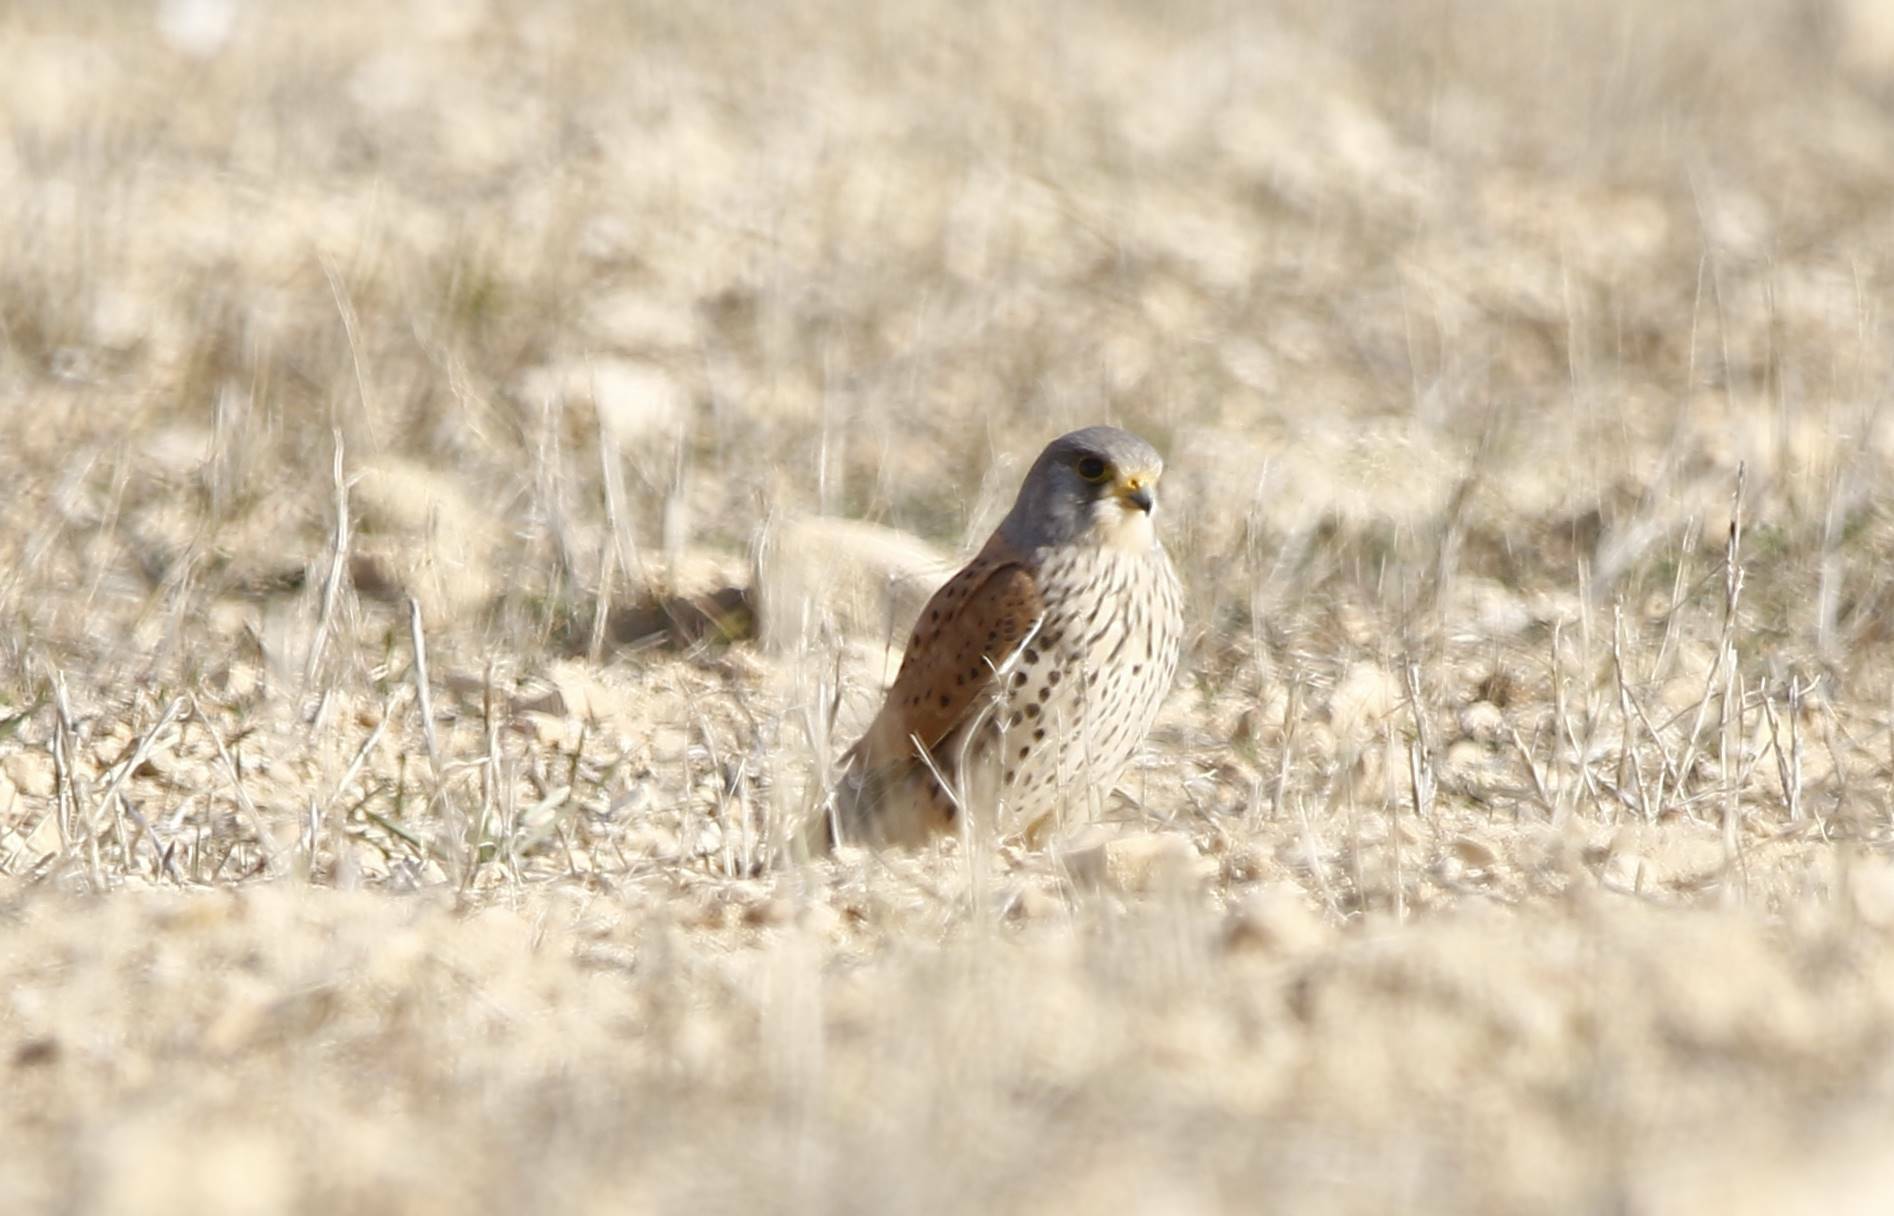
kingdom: Animalia
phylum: Chordata
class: Aves
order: Falconiformes
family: Falconidae
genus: Falco
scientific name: Falco tinnunculus
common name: Common kestrel
